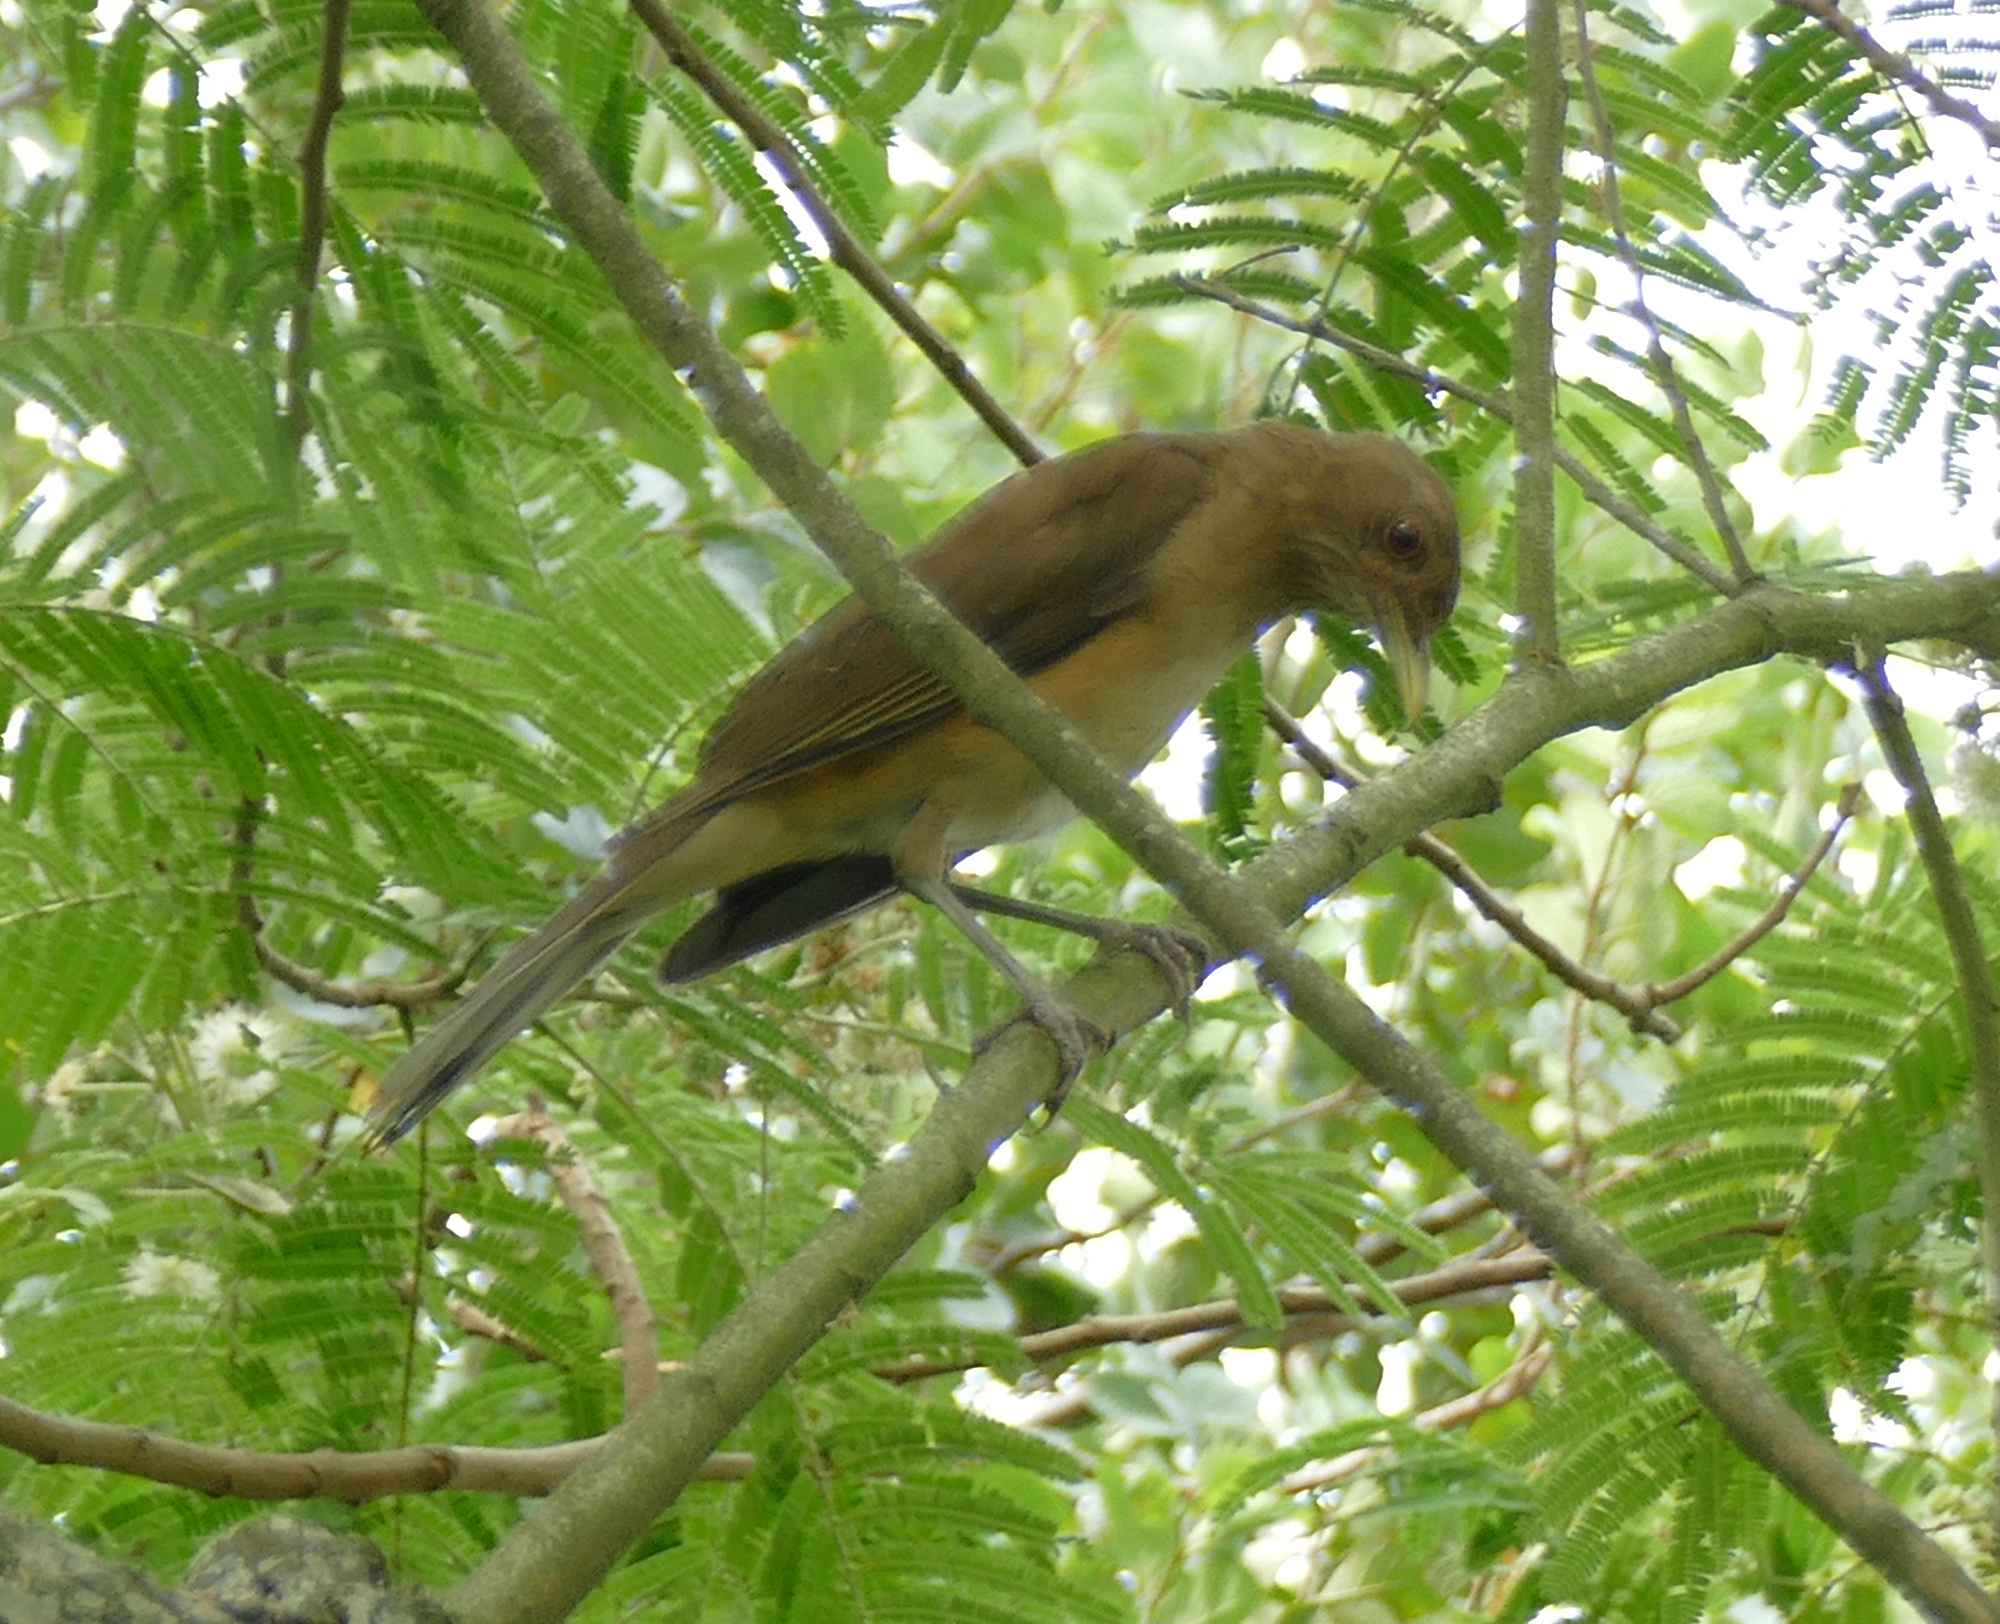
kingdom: Animalia
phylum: Chordata
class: Aves
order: Passeriformes
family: Turdidae
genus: Turdus
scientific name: Turdus grayi
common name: Clay-colored thrush
